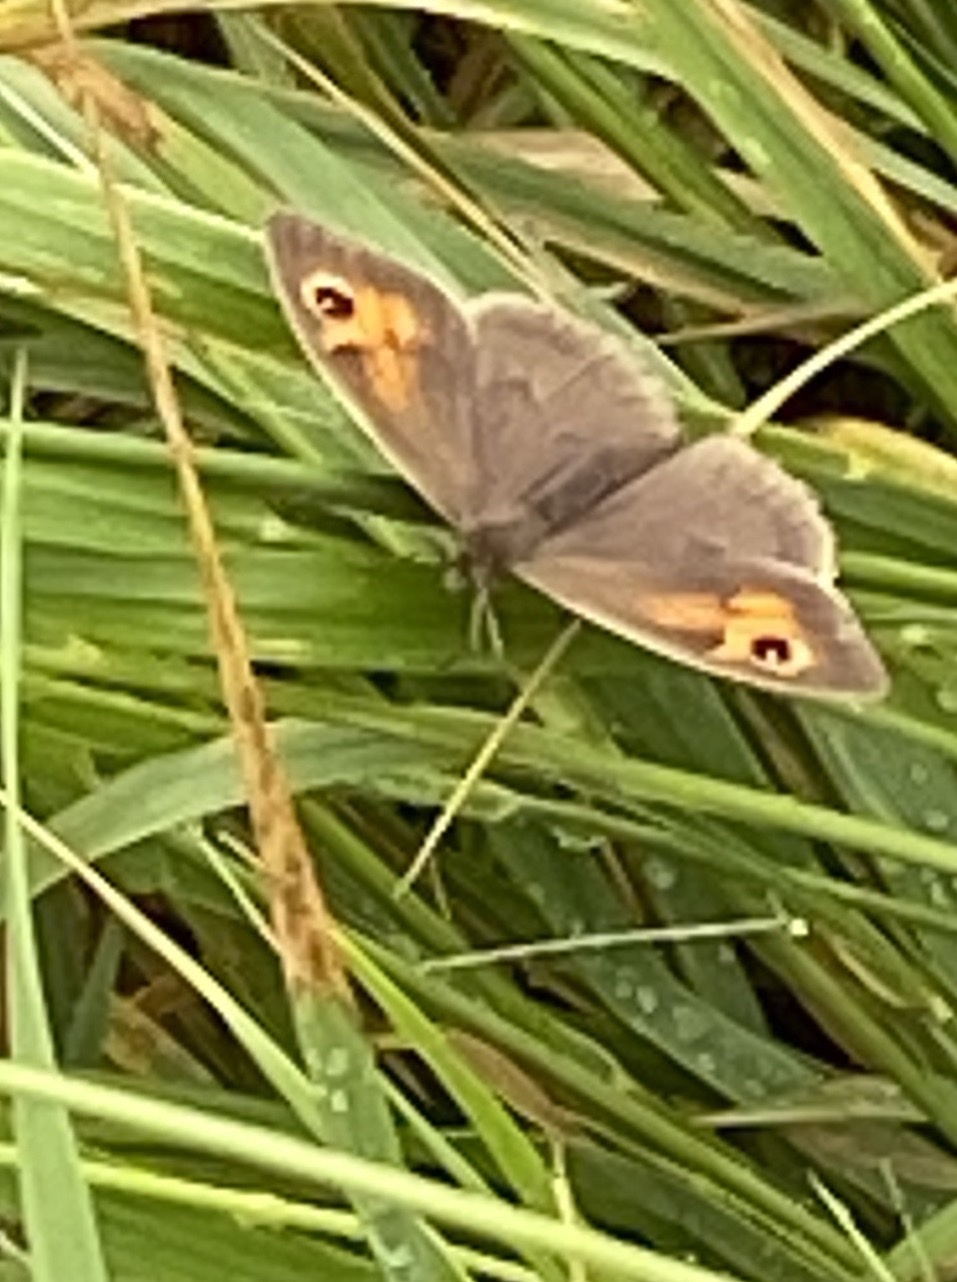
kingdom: Animalia
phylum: Arthropoda
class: Insecta
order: Lepidoptera
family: Nymphalidae
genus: Maniola
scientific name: Maniola jurtina
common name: Meadow brown
